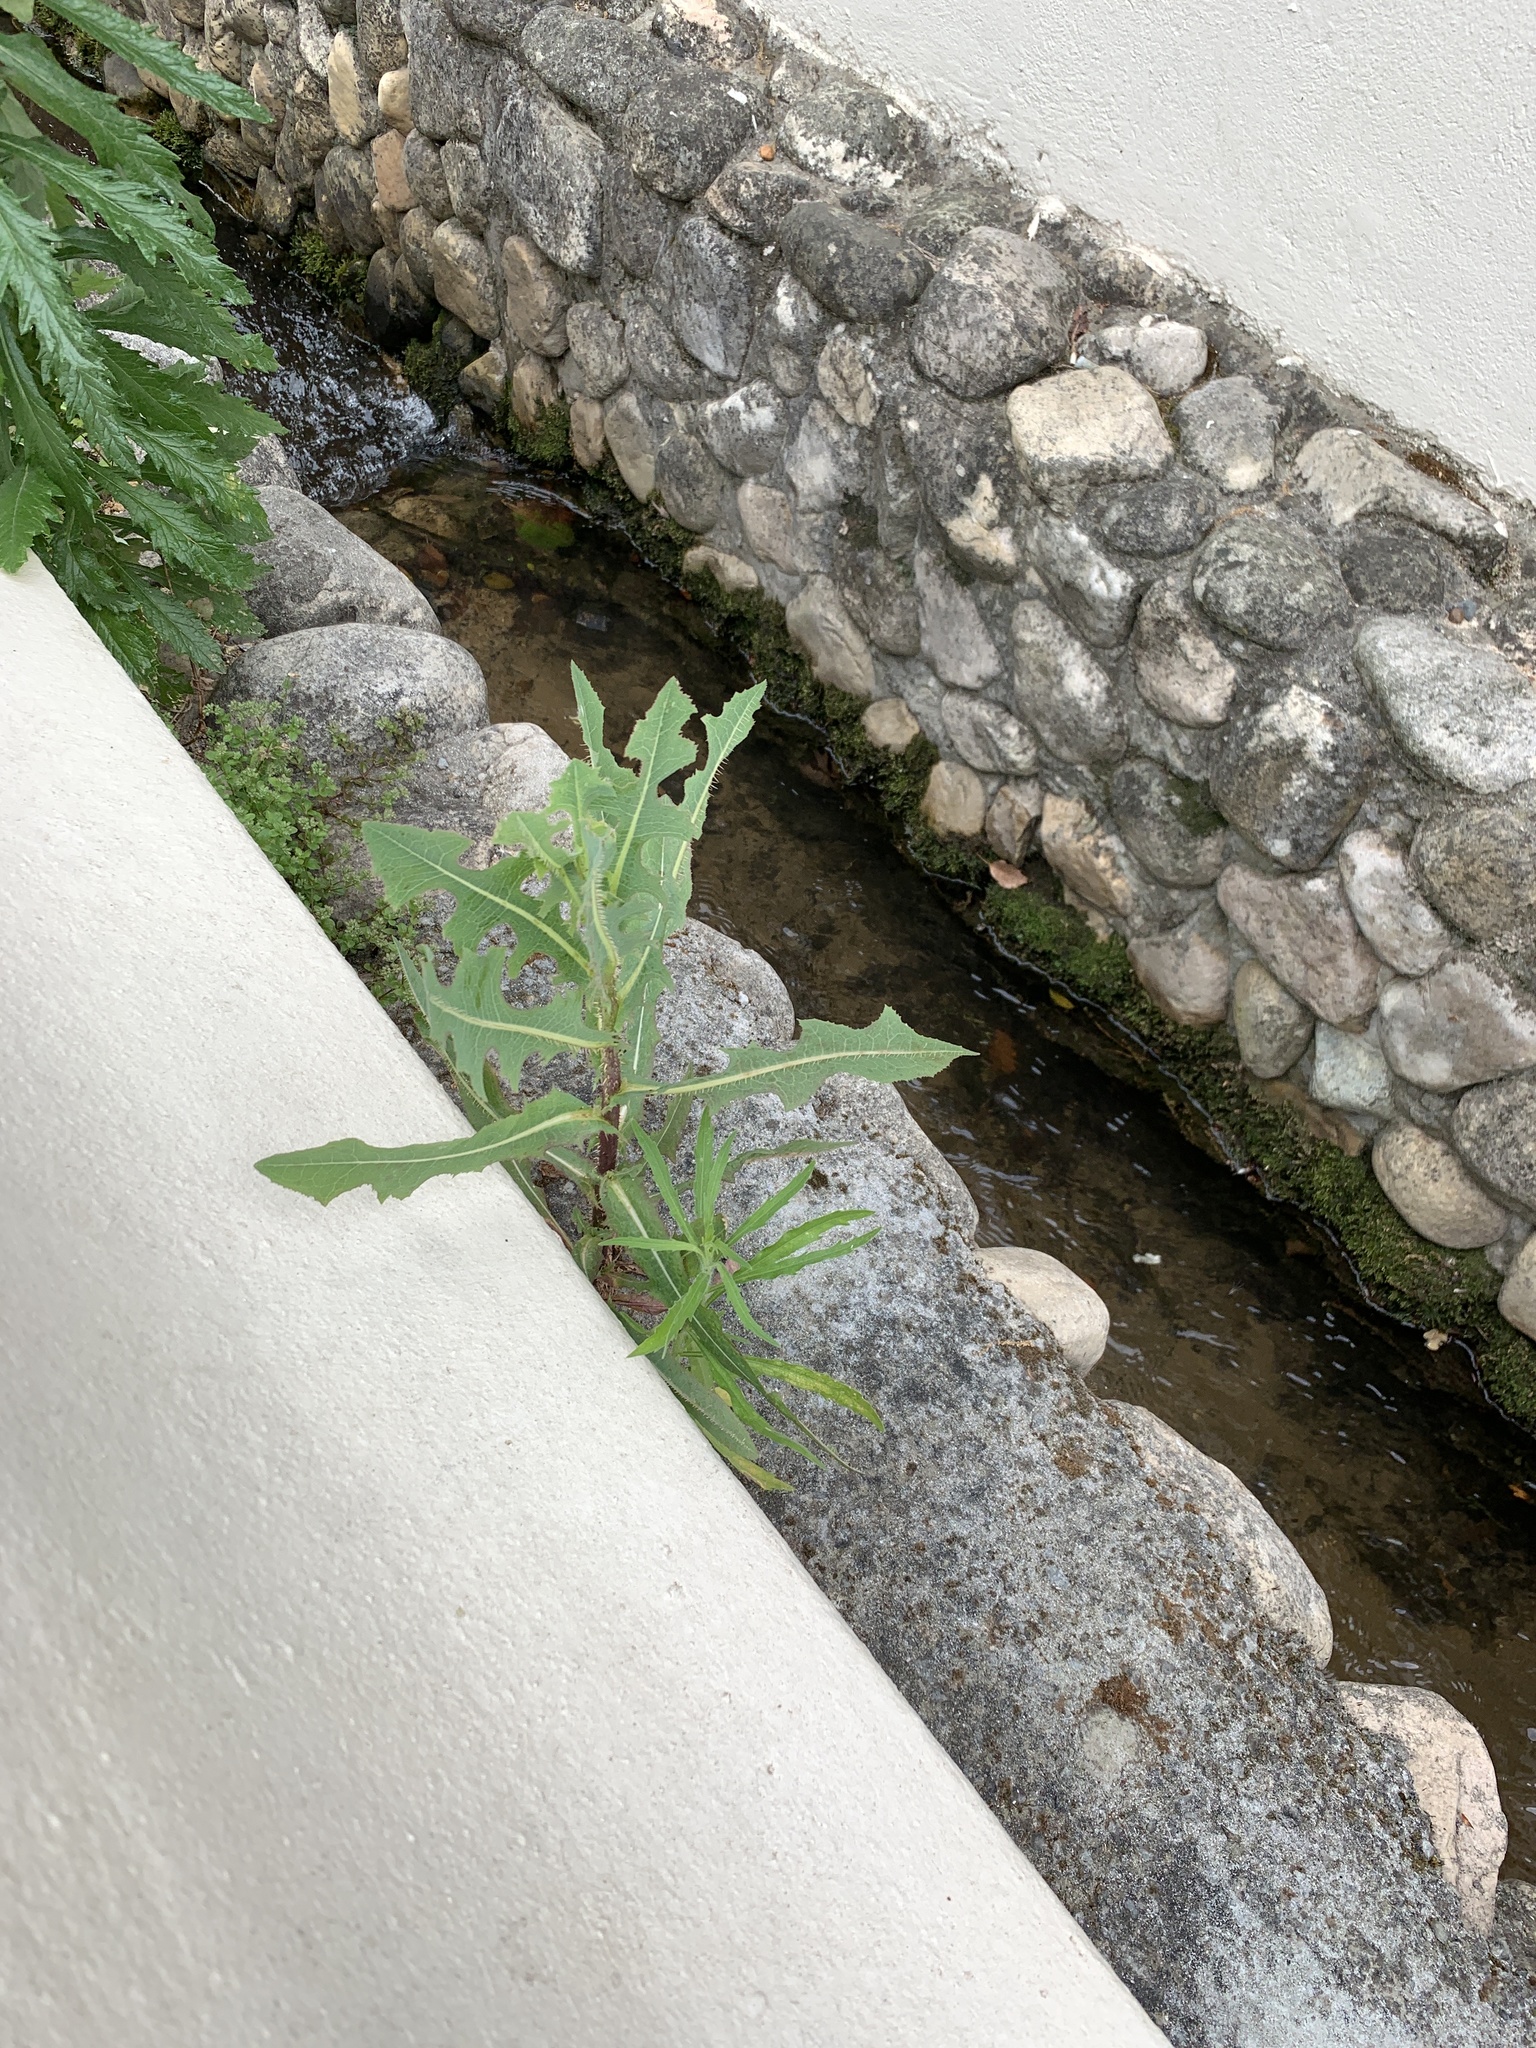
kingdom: Plantae
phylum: Tracheophyta
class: Magnoliopsida
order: Asterales
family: Asteraceae
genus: Lactuca
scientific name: Lactuca serriola
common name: Prickly lettuce
